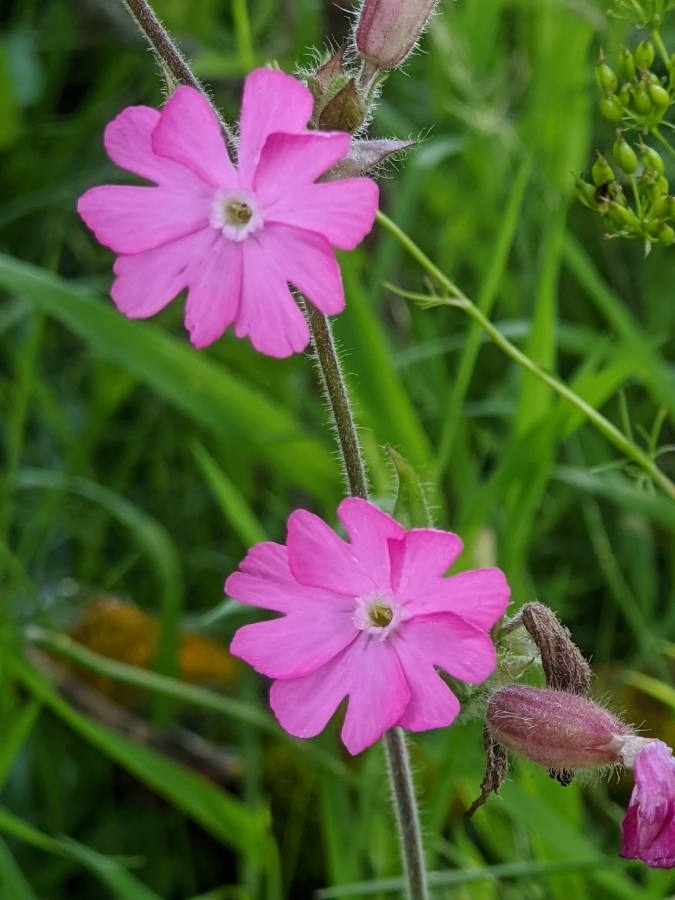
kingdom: Plantae
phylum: Tracheophyta
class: Magnoliopsida
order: Caryophyllales
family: Caryophyllaceae
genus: Silene
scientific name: Silene dioica
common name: Red campion
